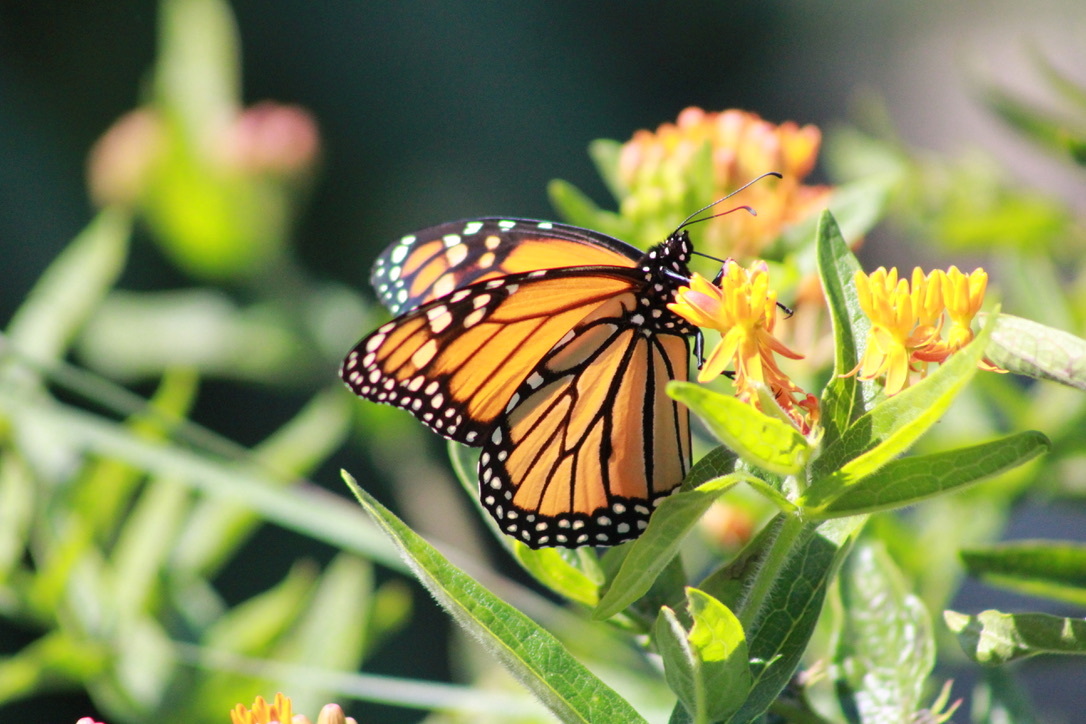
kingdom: Animalia
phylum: Arthropoda
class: Insecta
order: Lepidoptera
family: Nymphalidae
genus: Danaus
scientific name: Danaus plexippus
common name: Monarch
